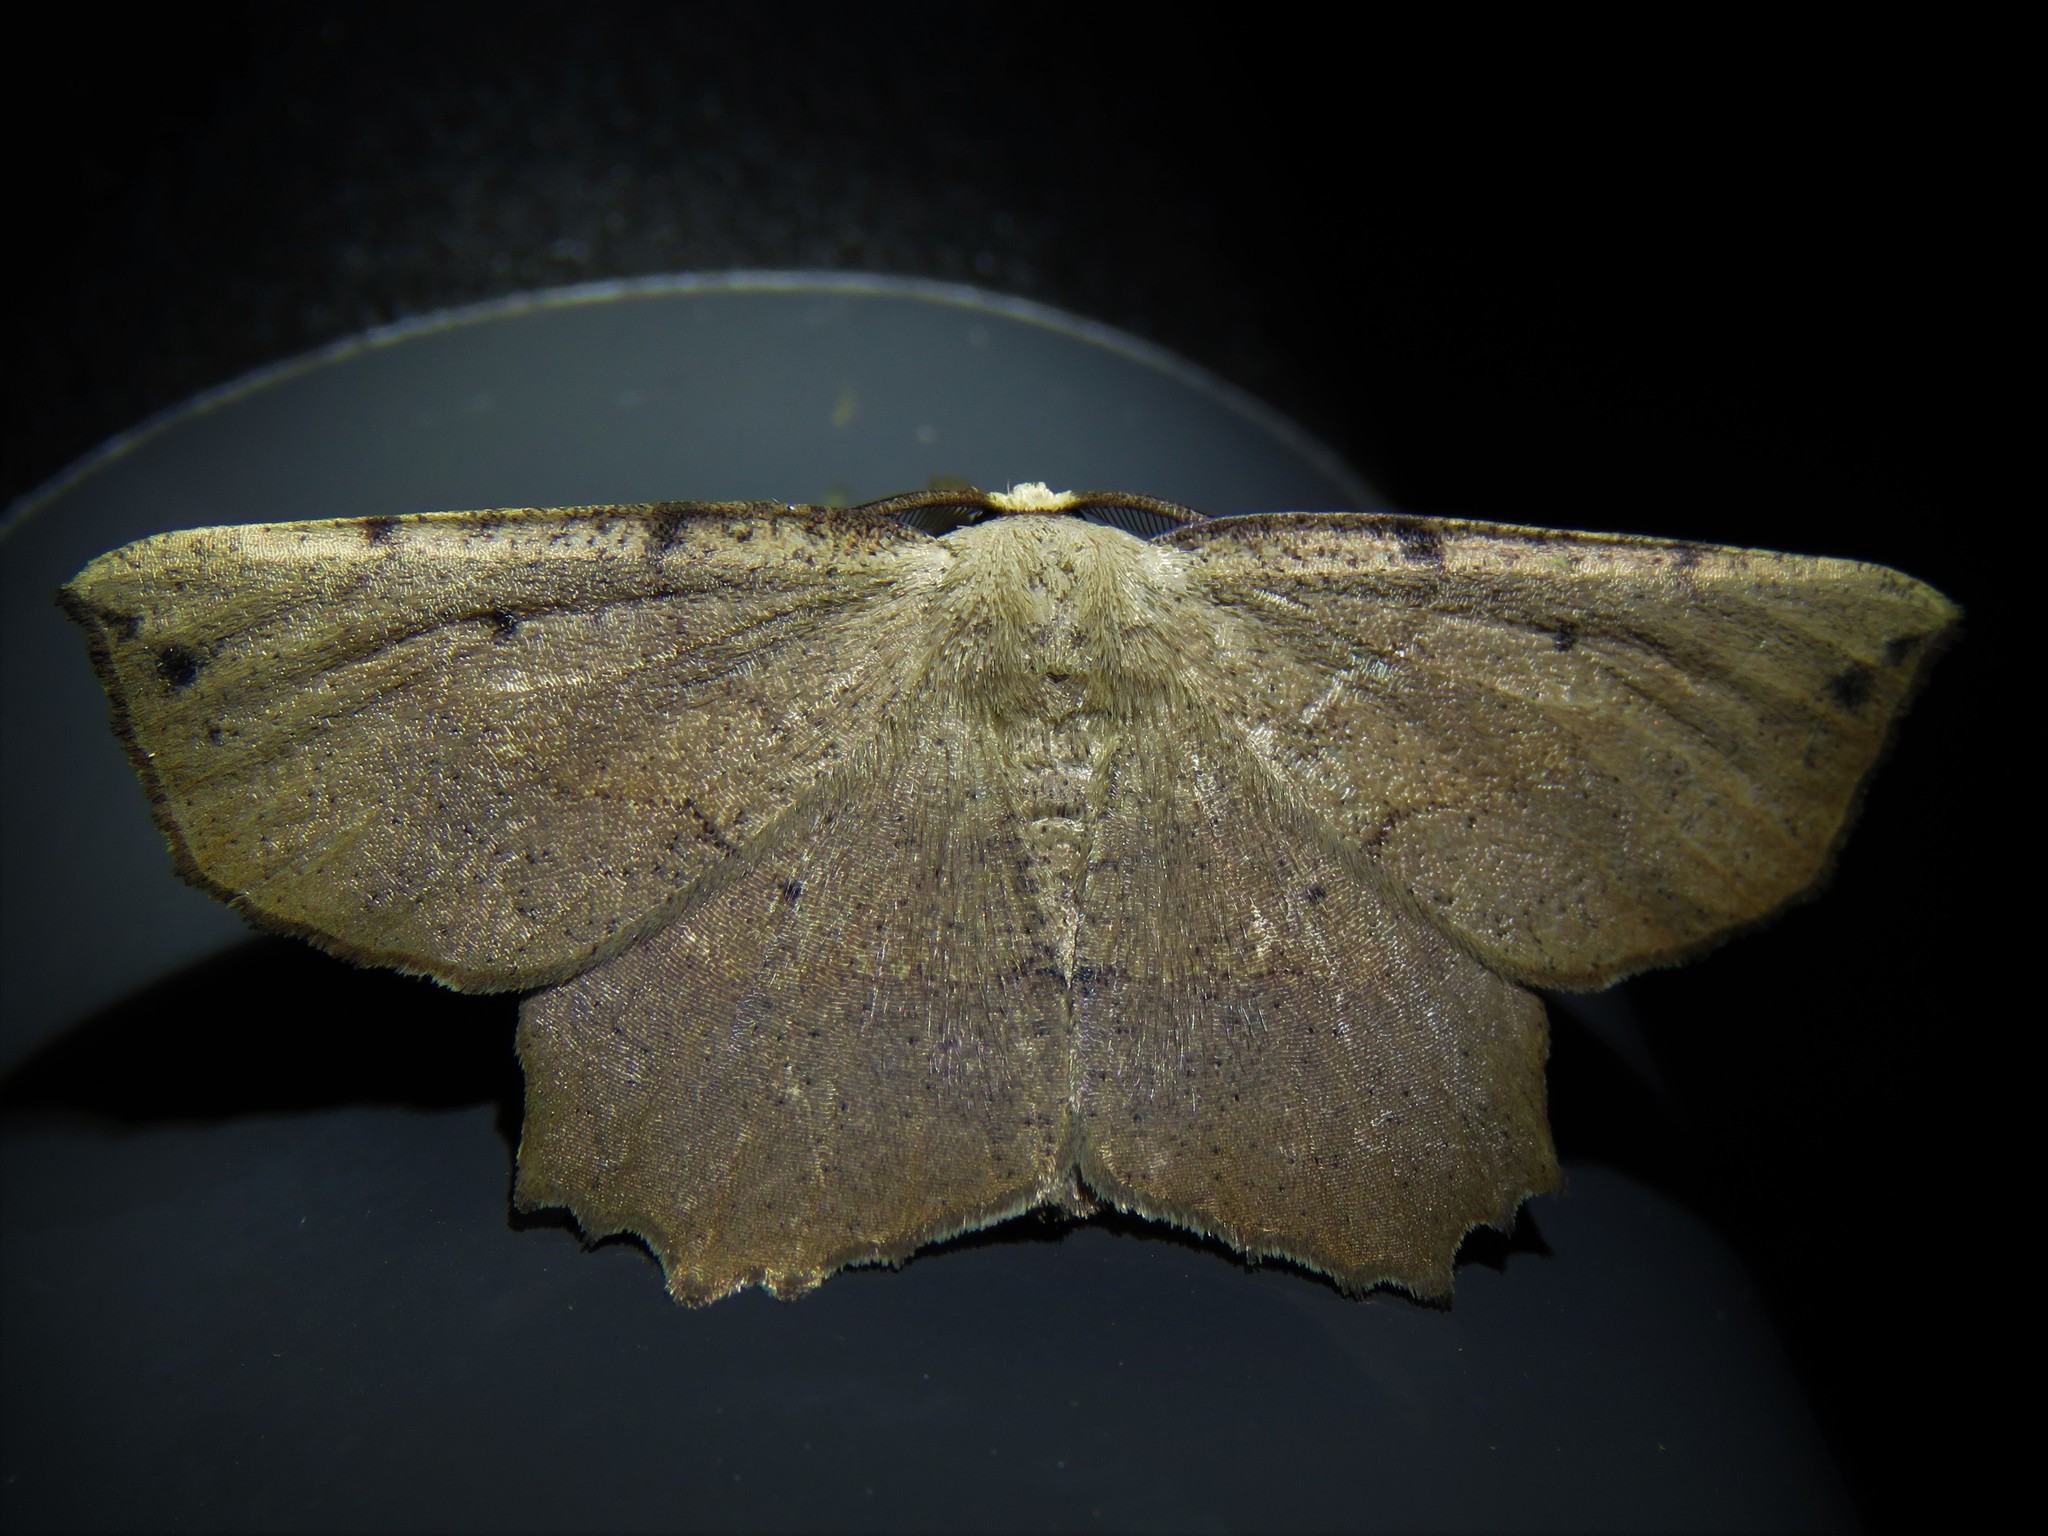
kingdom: Animalia
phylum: Arthropoda
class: Insecta
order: Lepidoptera
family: Geometridae
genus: Euchlaena
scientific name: Euchlaena obtusaria
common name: Obtuse euchlaena moth
